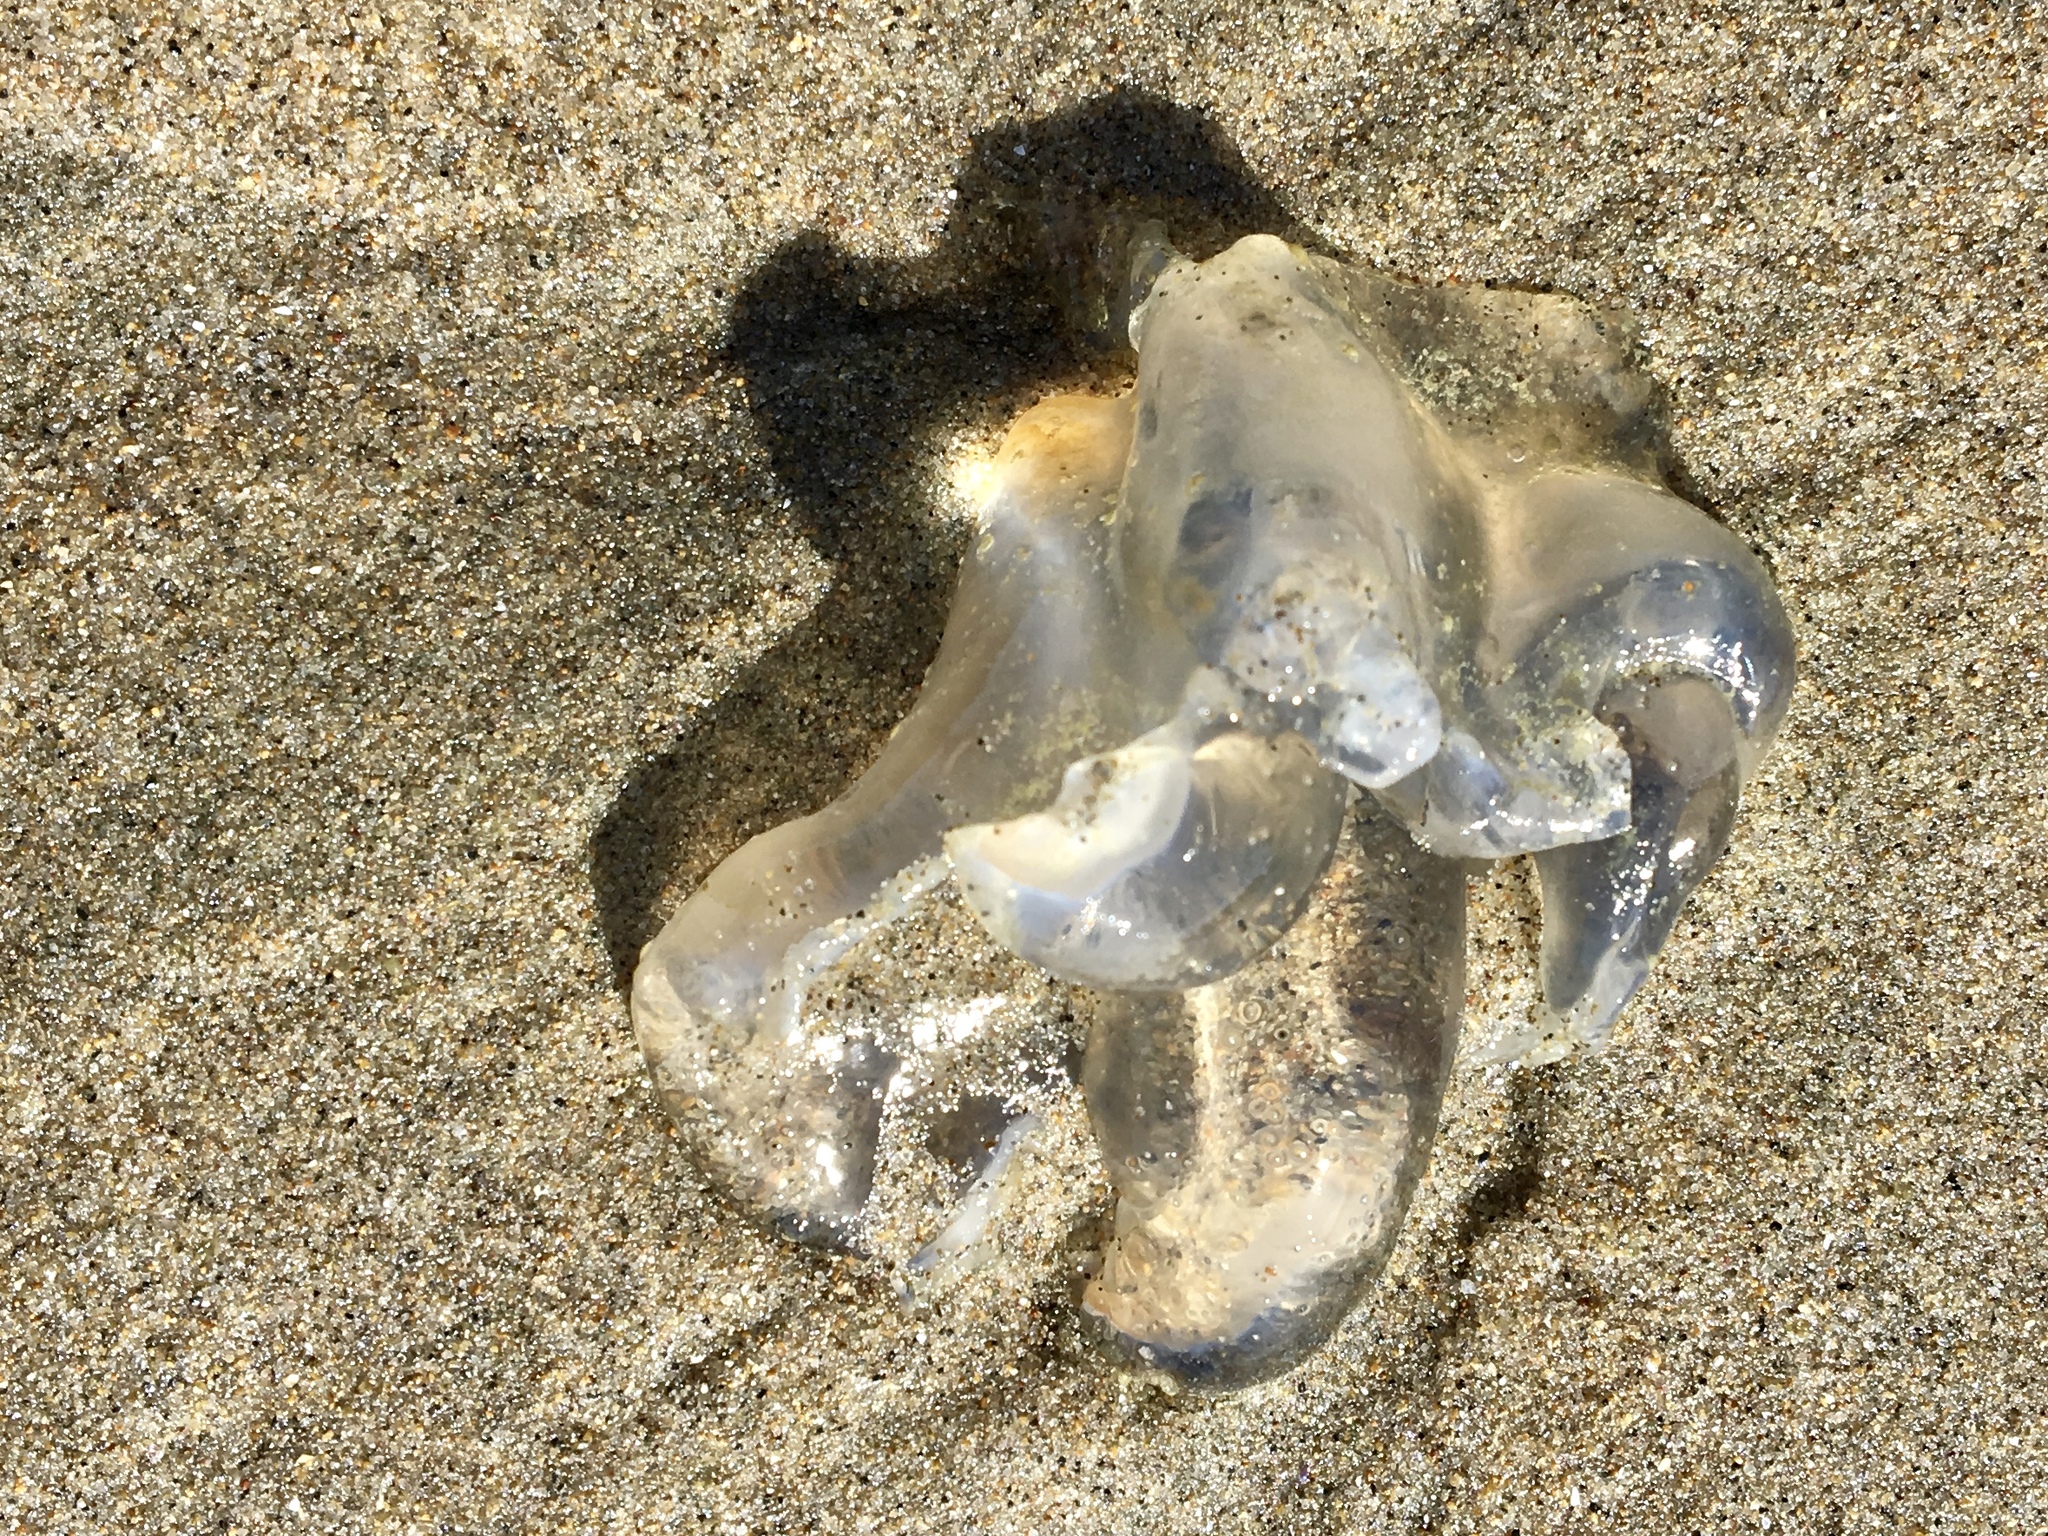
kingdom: Animalia
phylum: Cnidaria
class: Scyphozoa
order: Semaeostomeae
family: Ulmaridae
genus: Aurelia
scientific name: Aurelia labiata
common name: Pacific moon jelly
